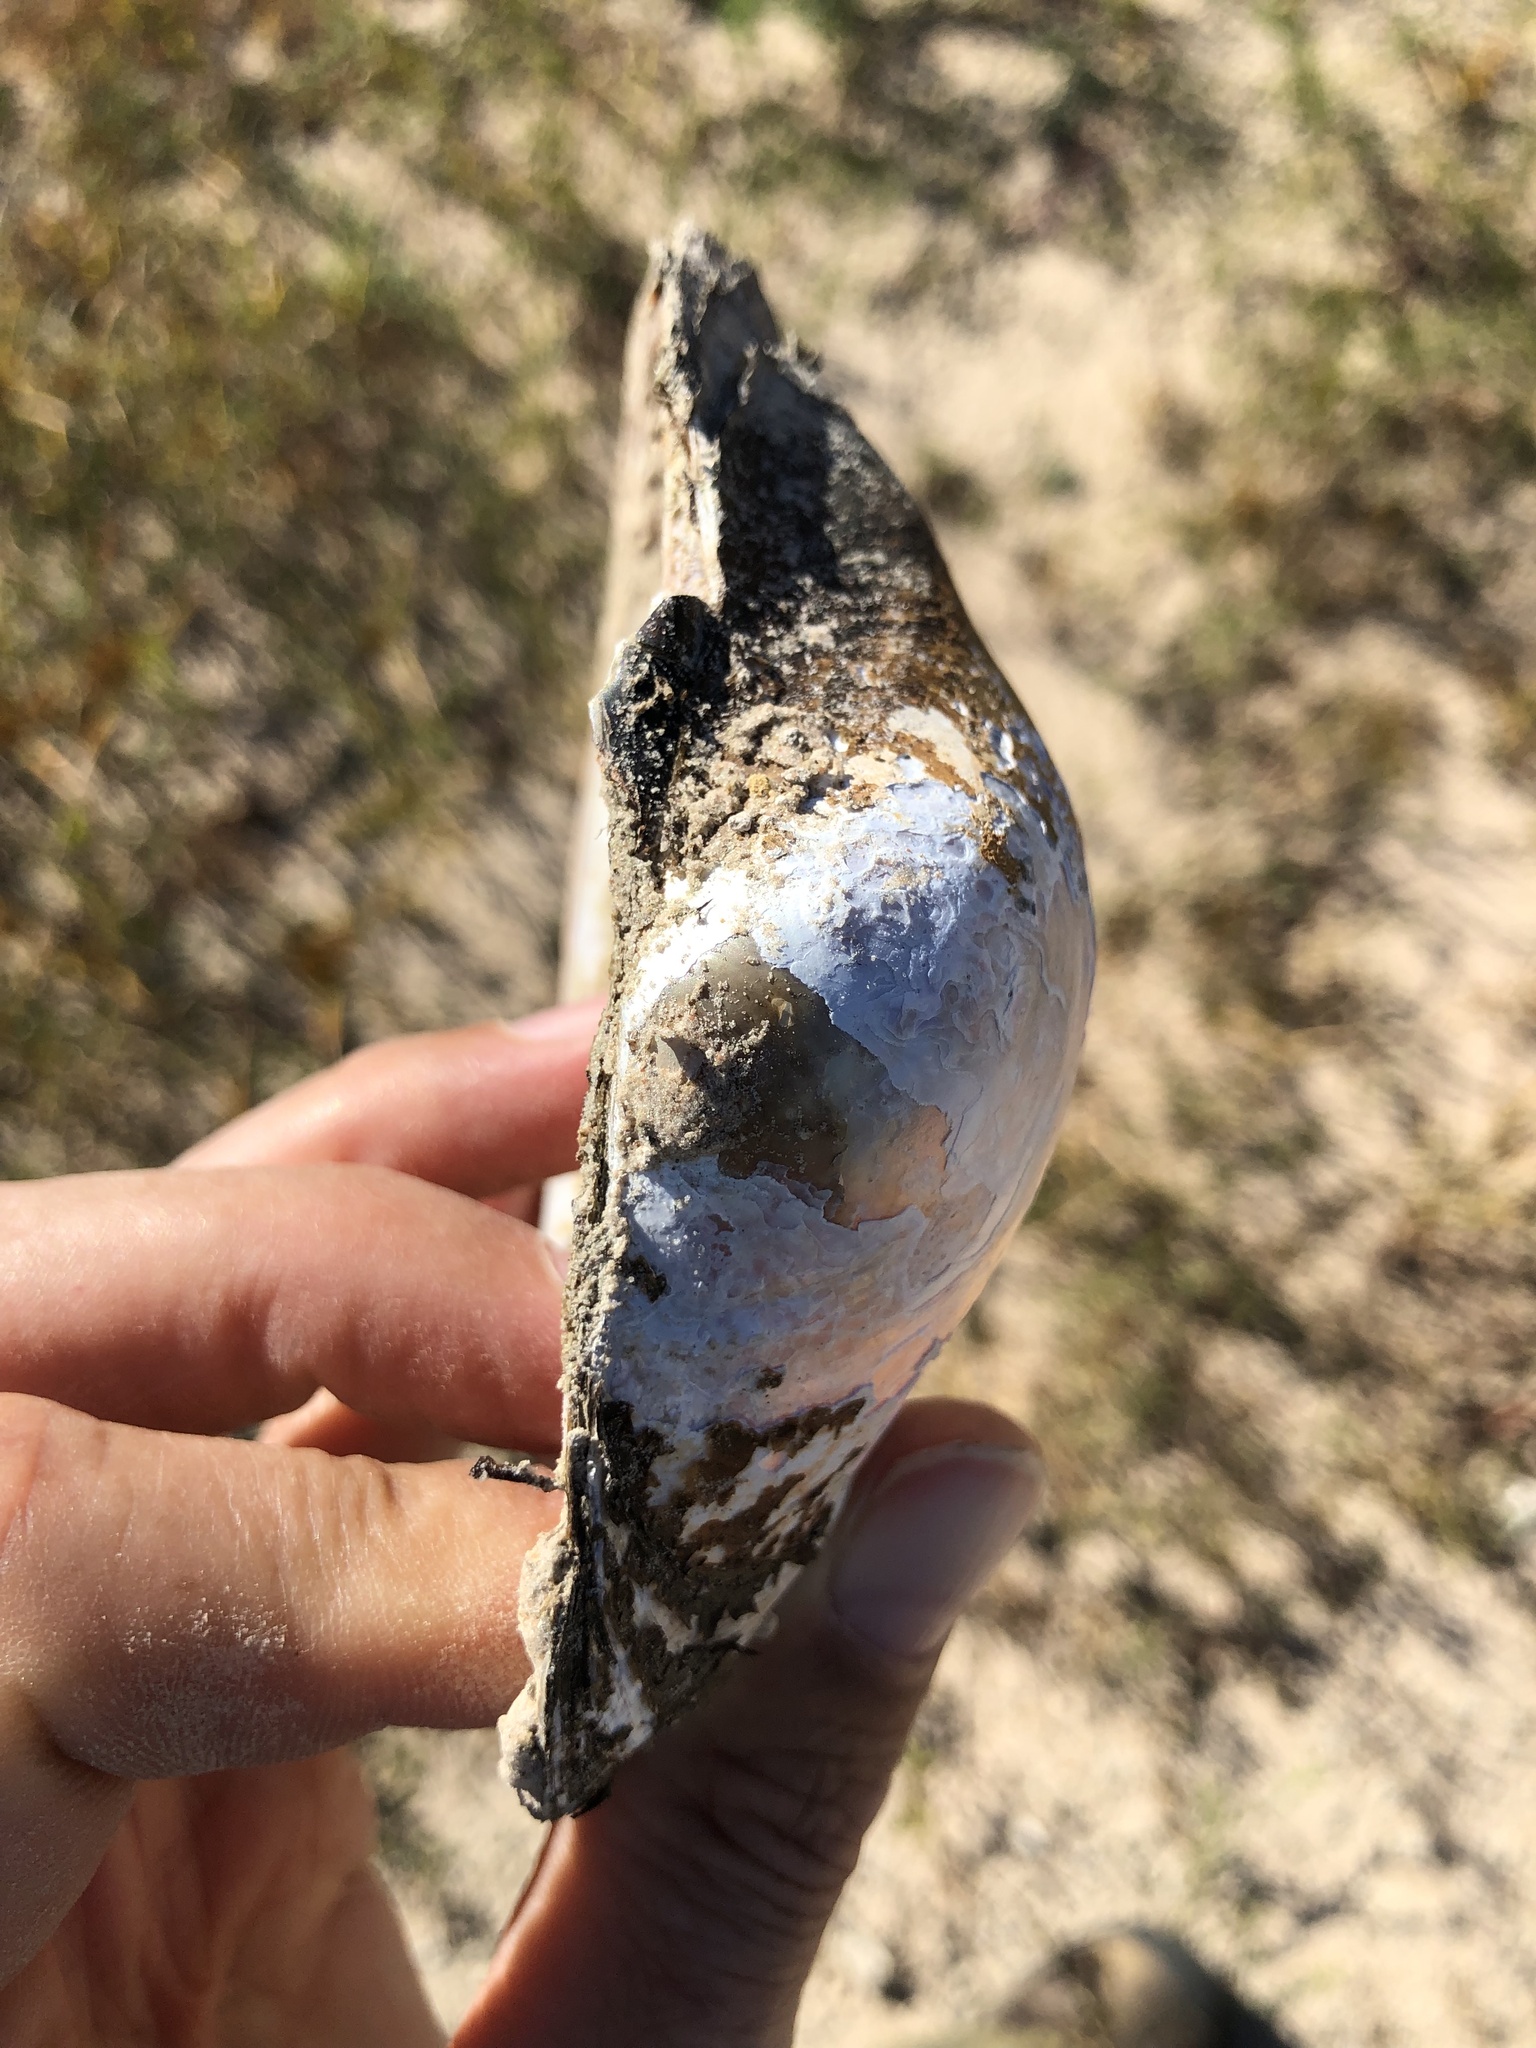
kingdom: Animalia
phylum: Mollusca
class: Bivalvia
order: Unionida
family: Unionidae
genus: Pyganodon
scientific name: Pyganodon grandis
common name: Giant floater
